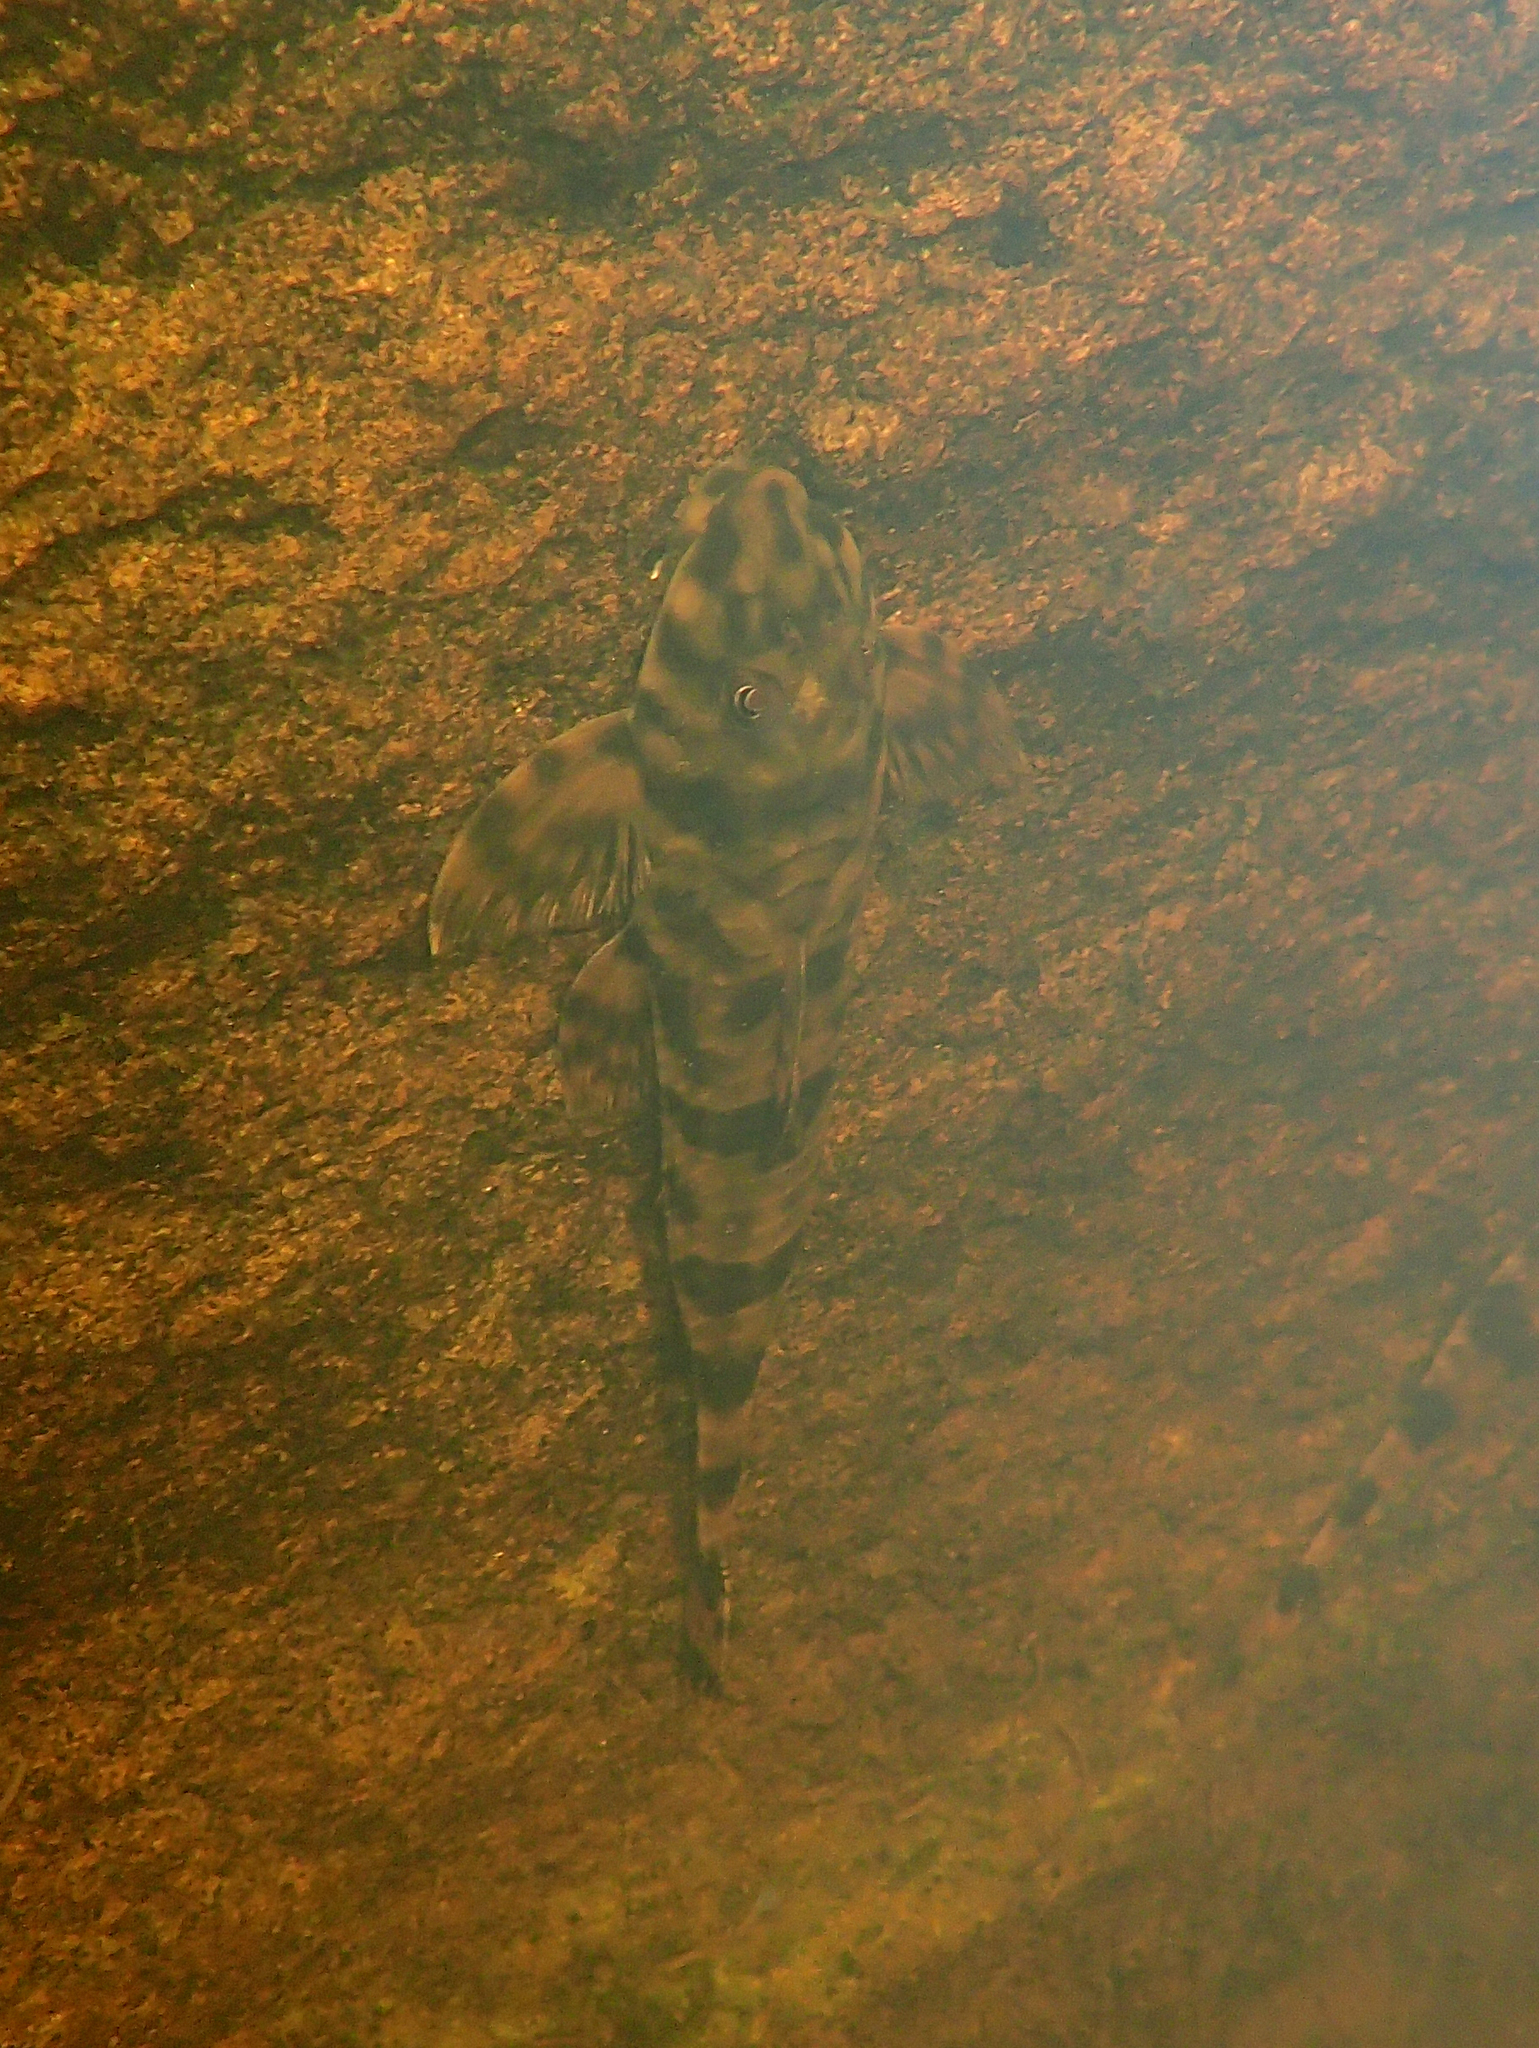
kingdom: Animalia
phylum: Chordata
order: Siluriformes
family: Loricariidae
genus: Harttia
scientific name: Harttia guianensis
